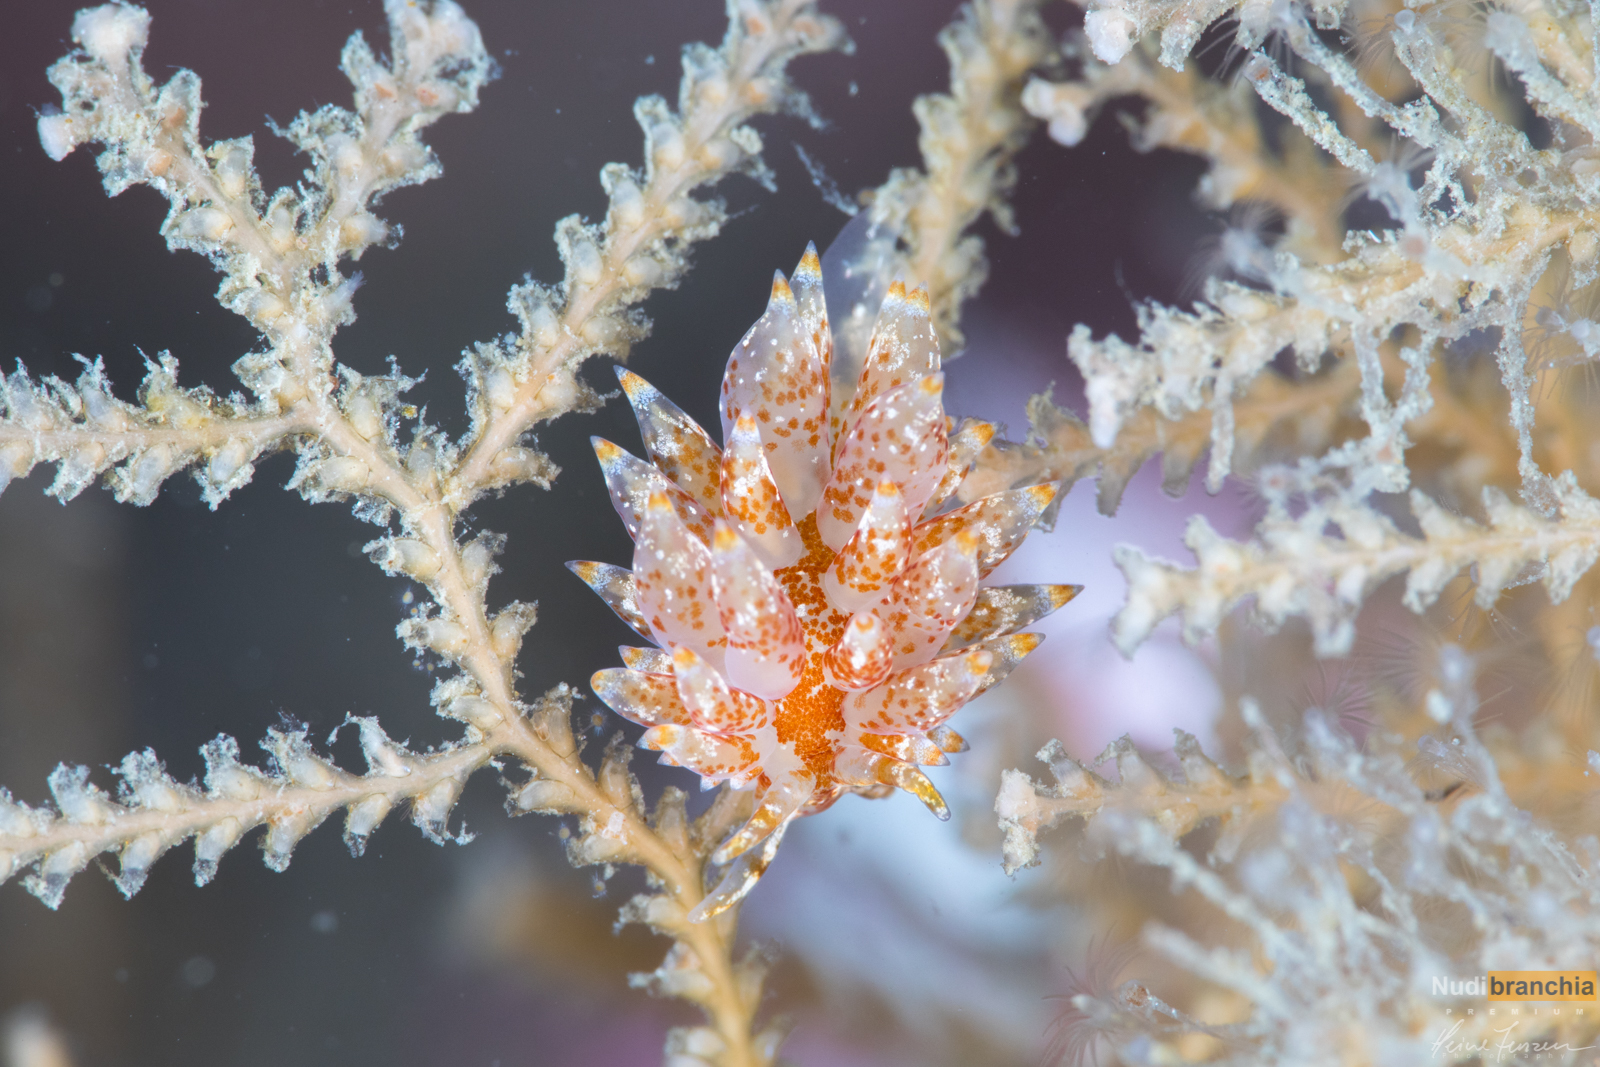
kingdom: Animalia
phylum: Mollusca
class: Gastropoda
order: Nudibranchia
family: Eubranchidae
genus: Amphorina
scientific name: Amphorina pallida
